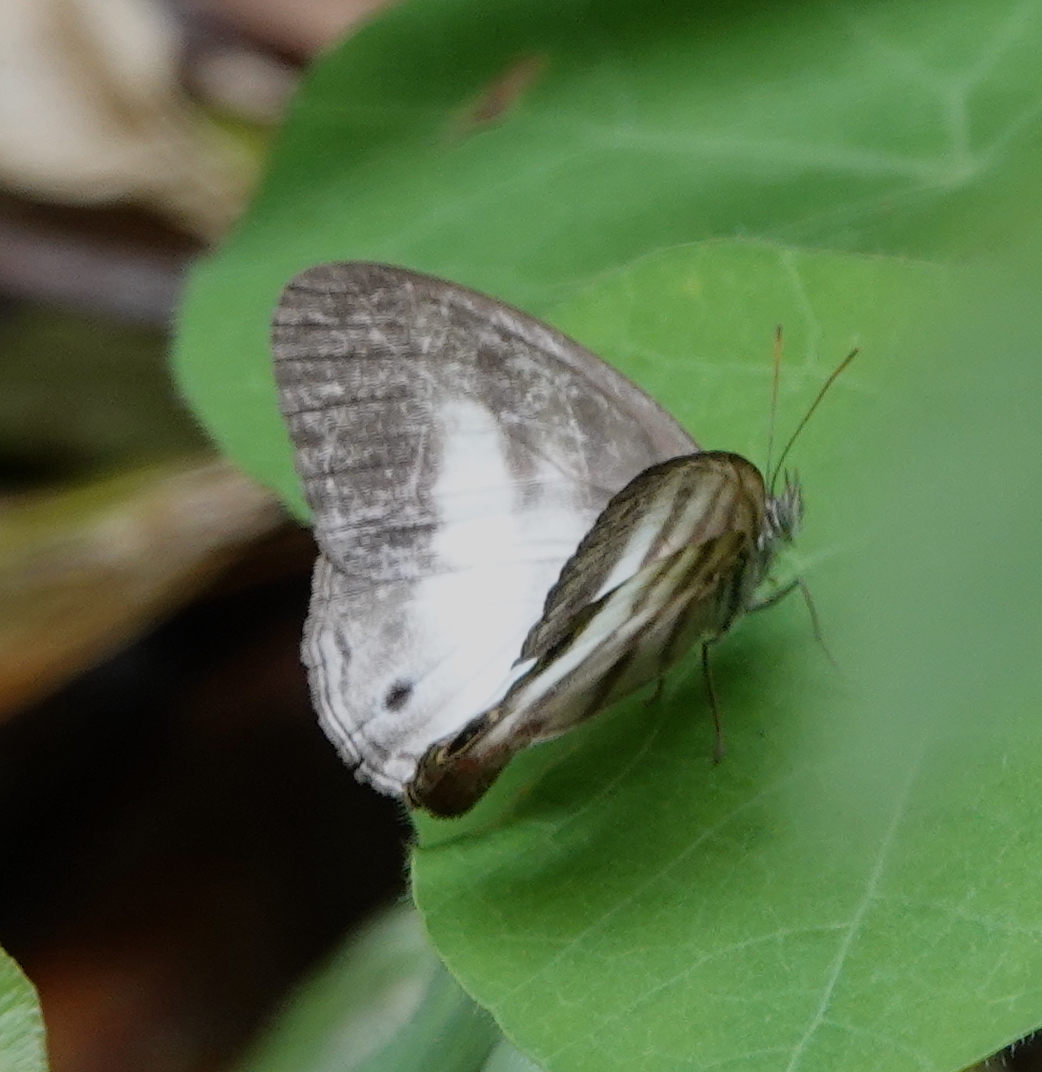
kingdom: Animalia
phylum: Arthropoda
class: Insecta
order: Lepidoptera
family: Nymphalidae
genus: Pareuptychia
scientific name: Pareuptychia metaleuca
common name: White-banded satyr
